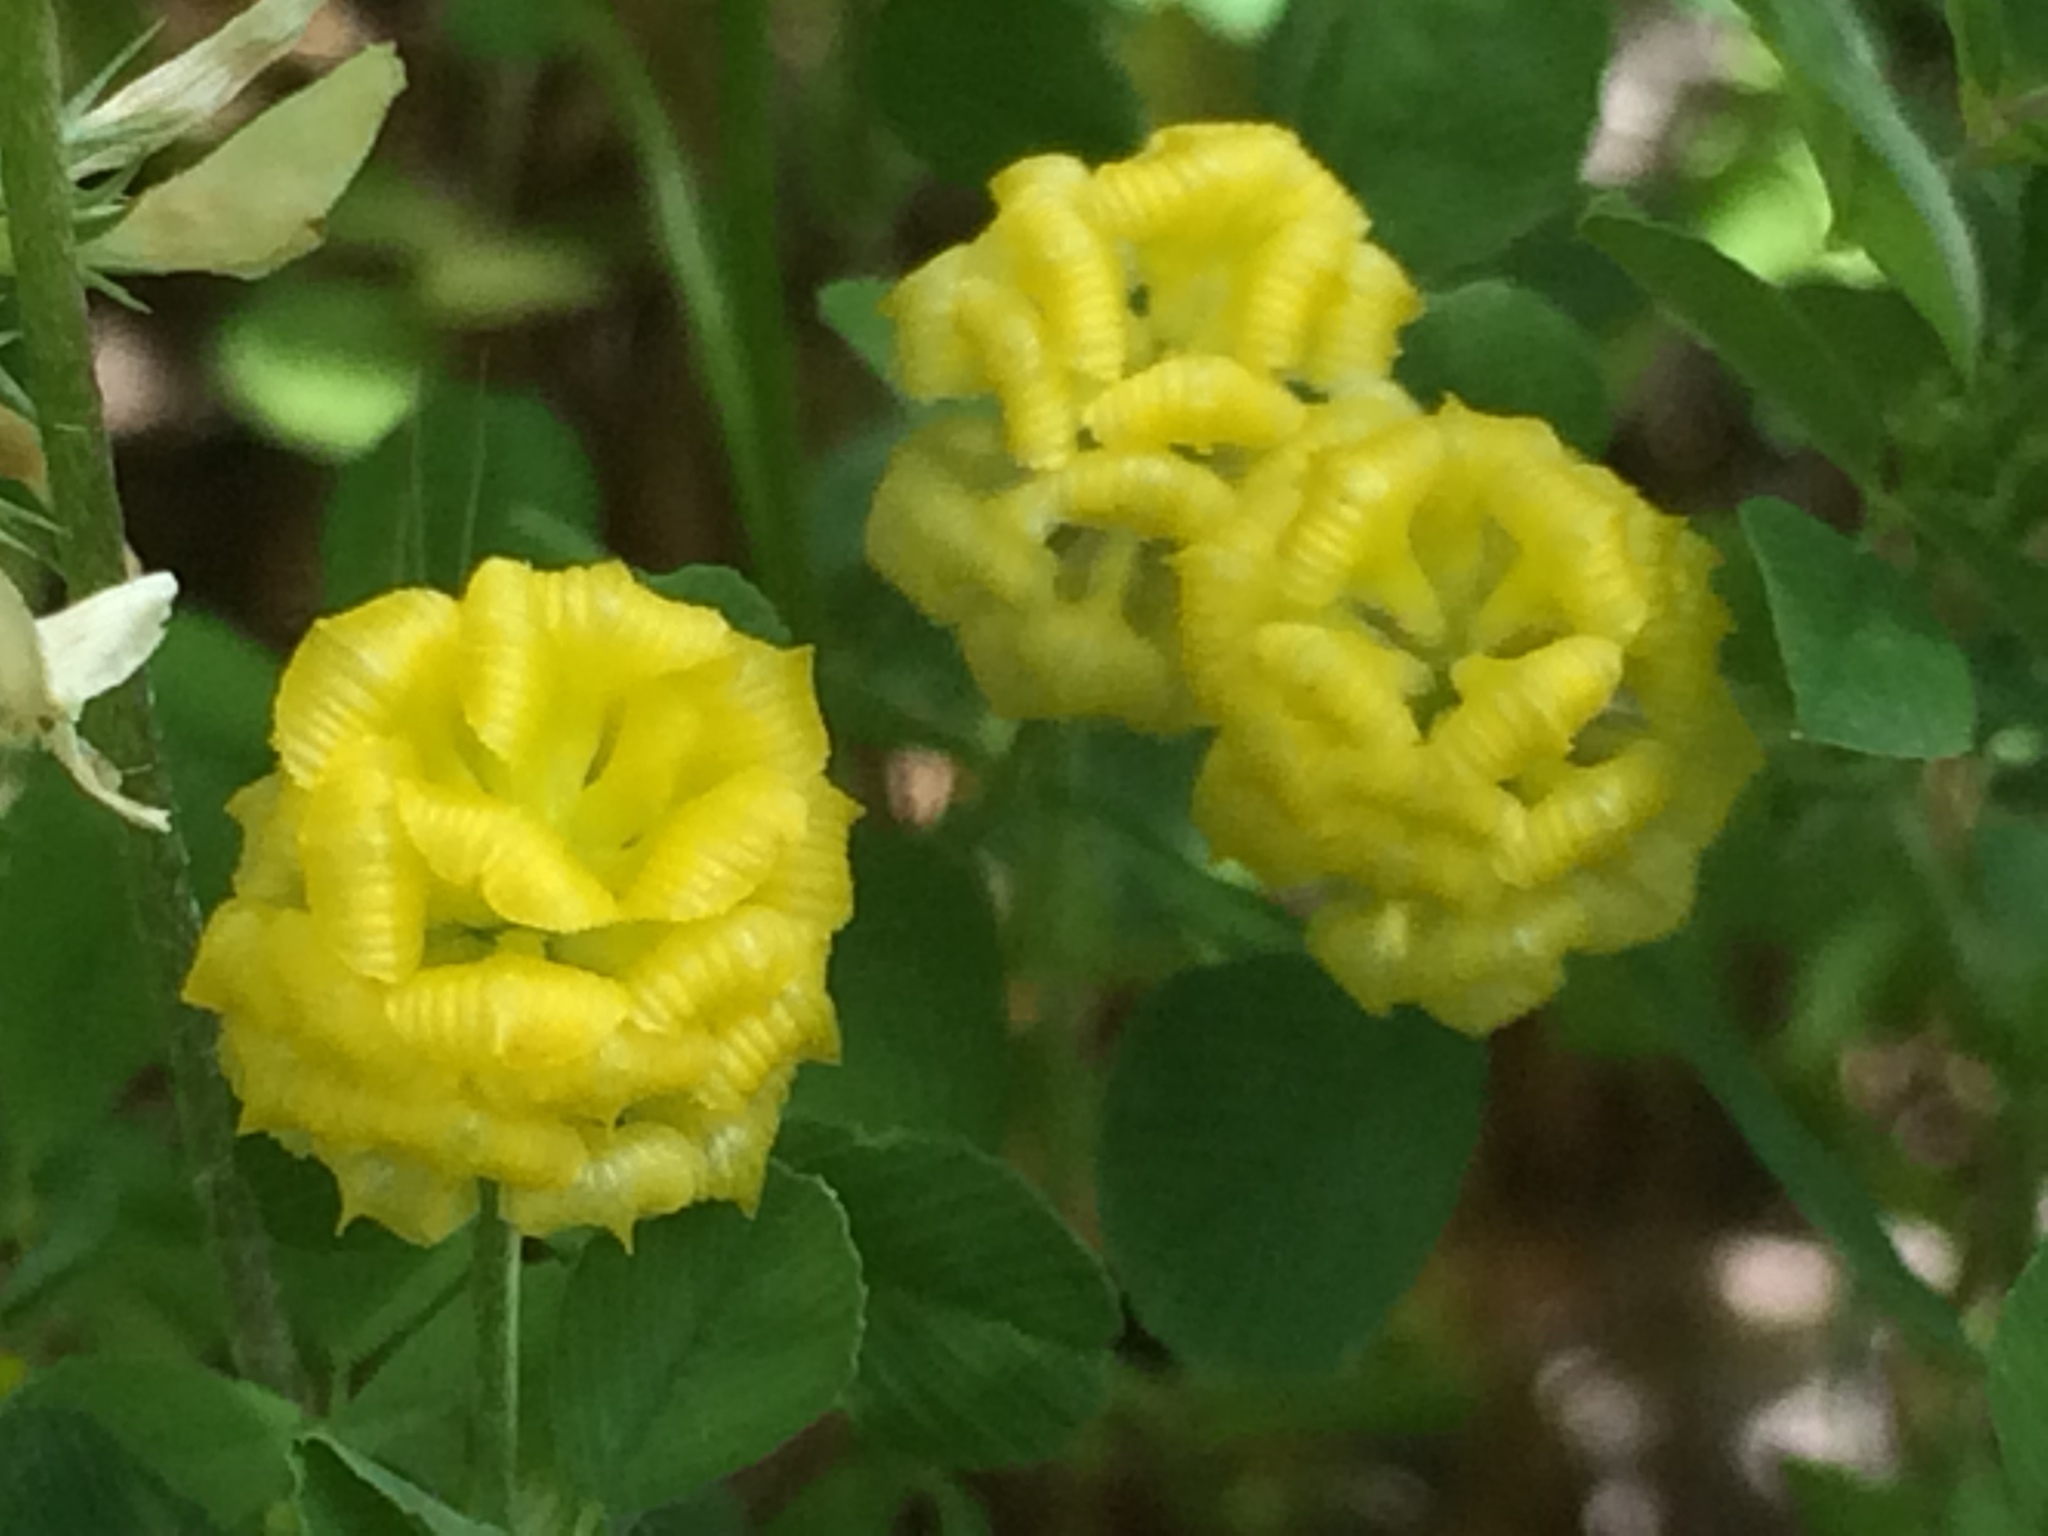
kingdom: Plantae
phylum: Tracheophyta
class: Magnoliopsida
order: Fabales
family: Fabaceae
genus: Trifolium
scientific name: Trifolium campestre
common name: Field clover
